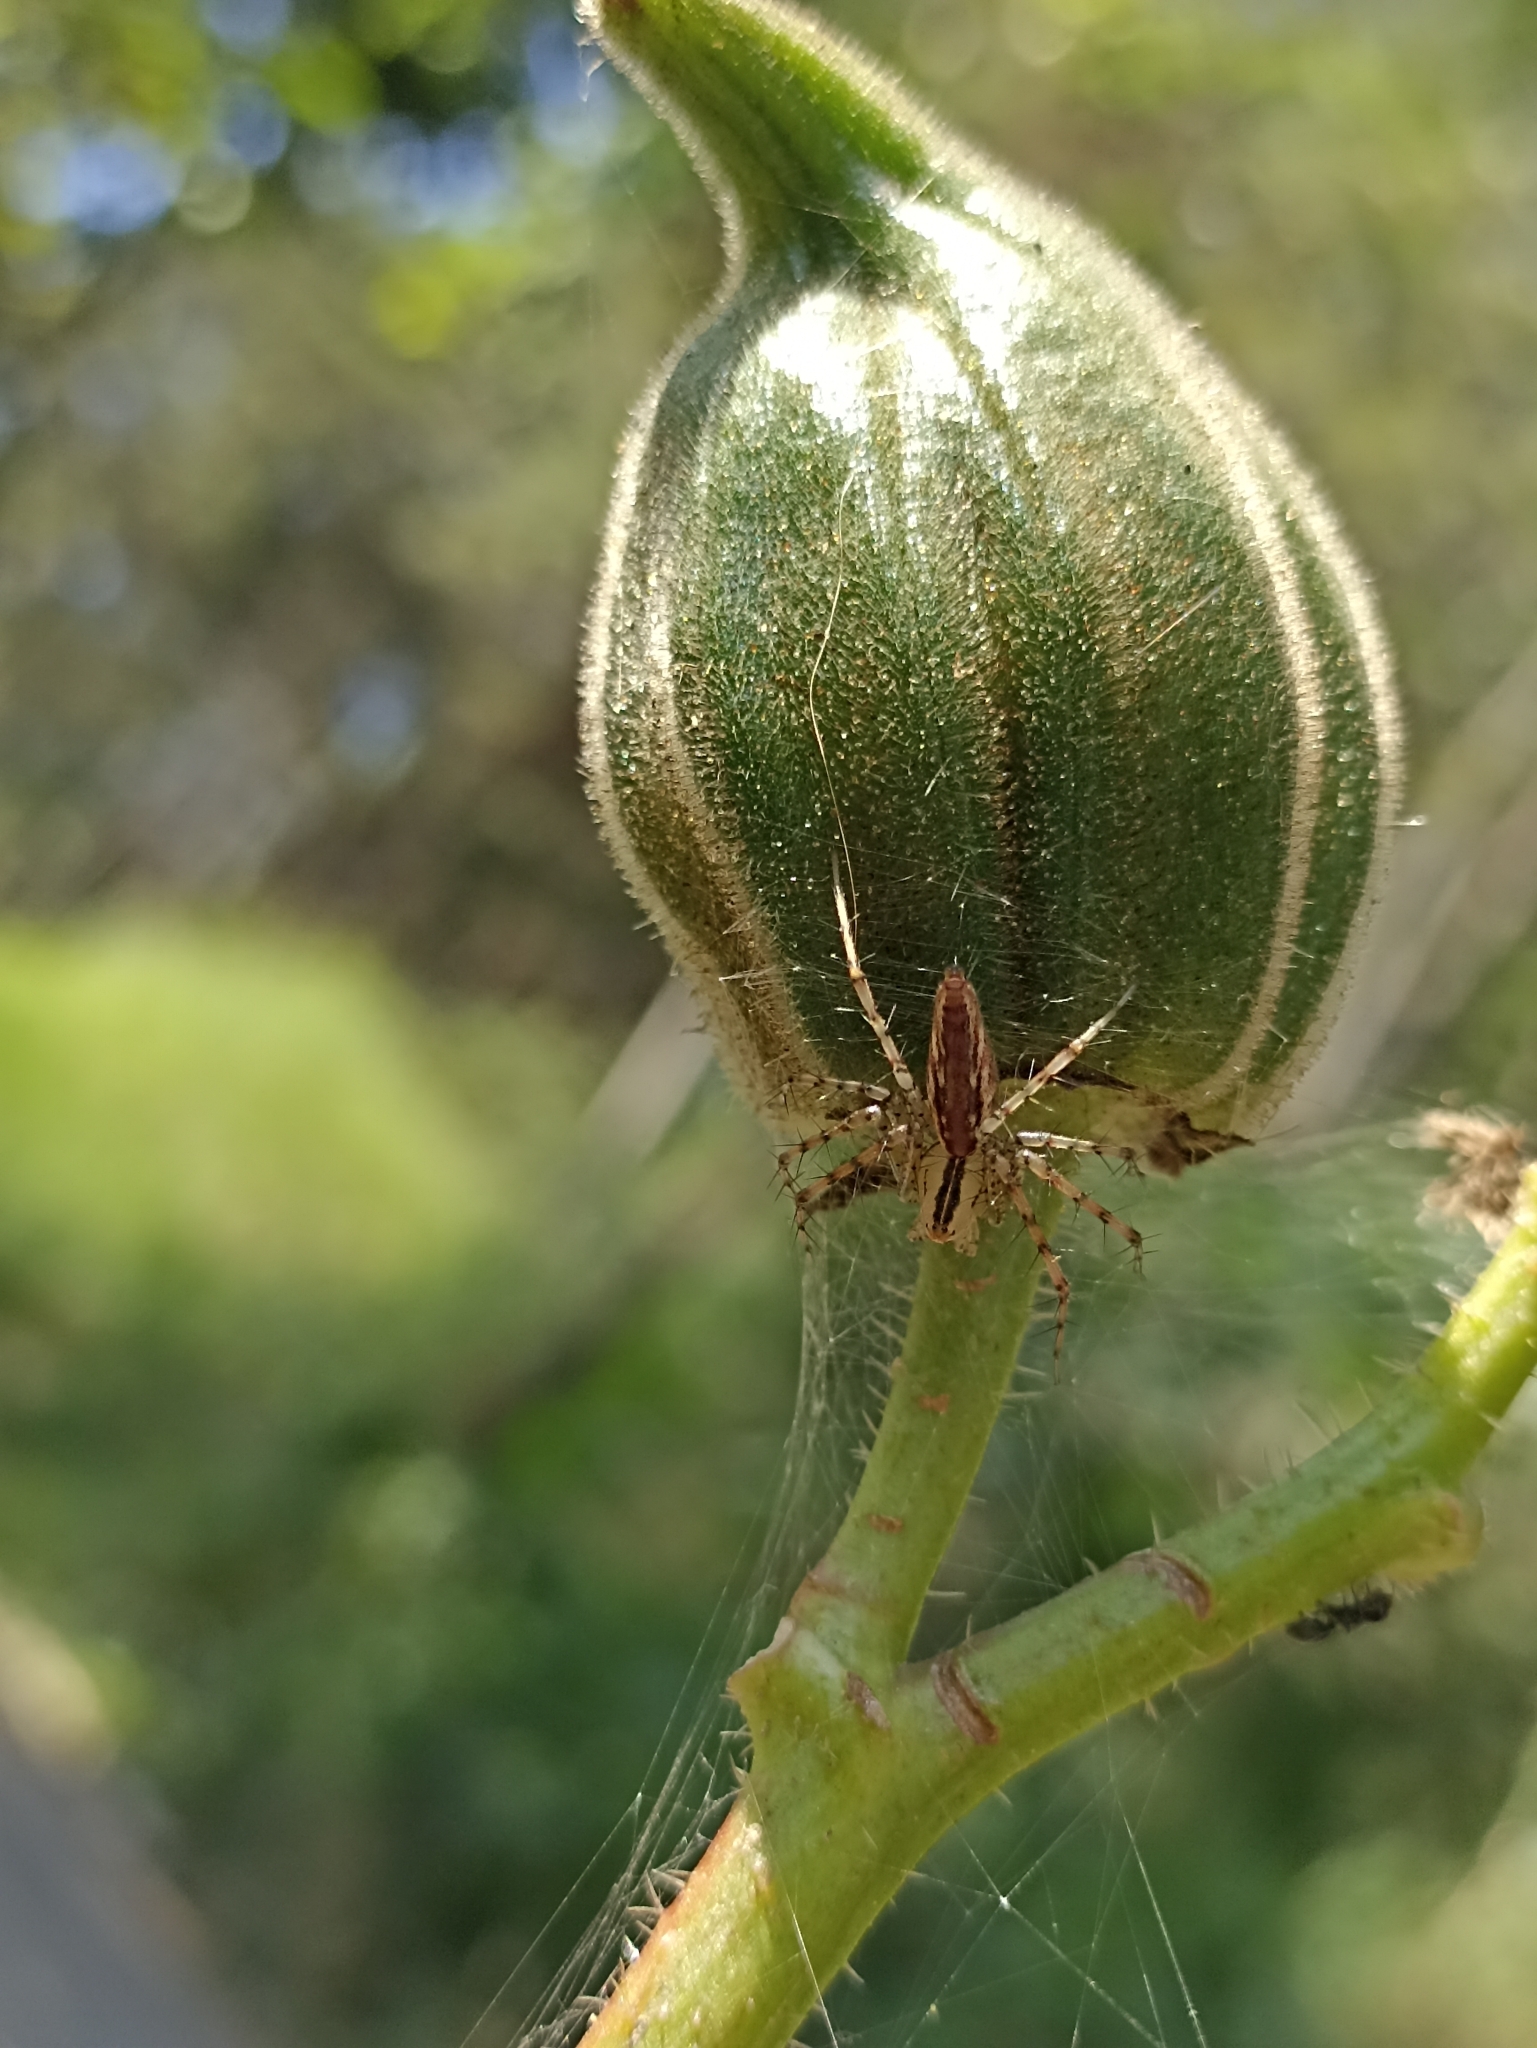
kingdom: Animalia
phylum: Arthropoda
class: Arachnida
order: Araneae
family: Oxyopidae
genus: Peucetia
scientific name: Peucetia rubrolineata
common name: Lynx spiders
